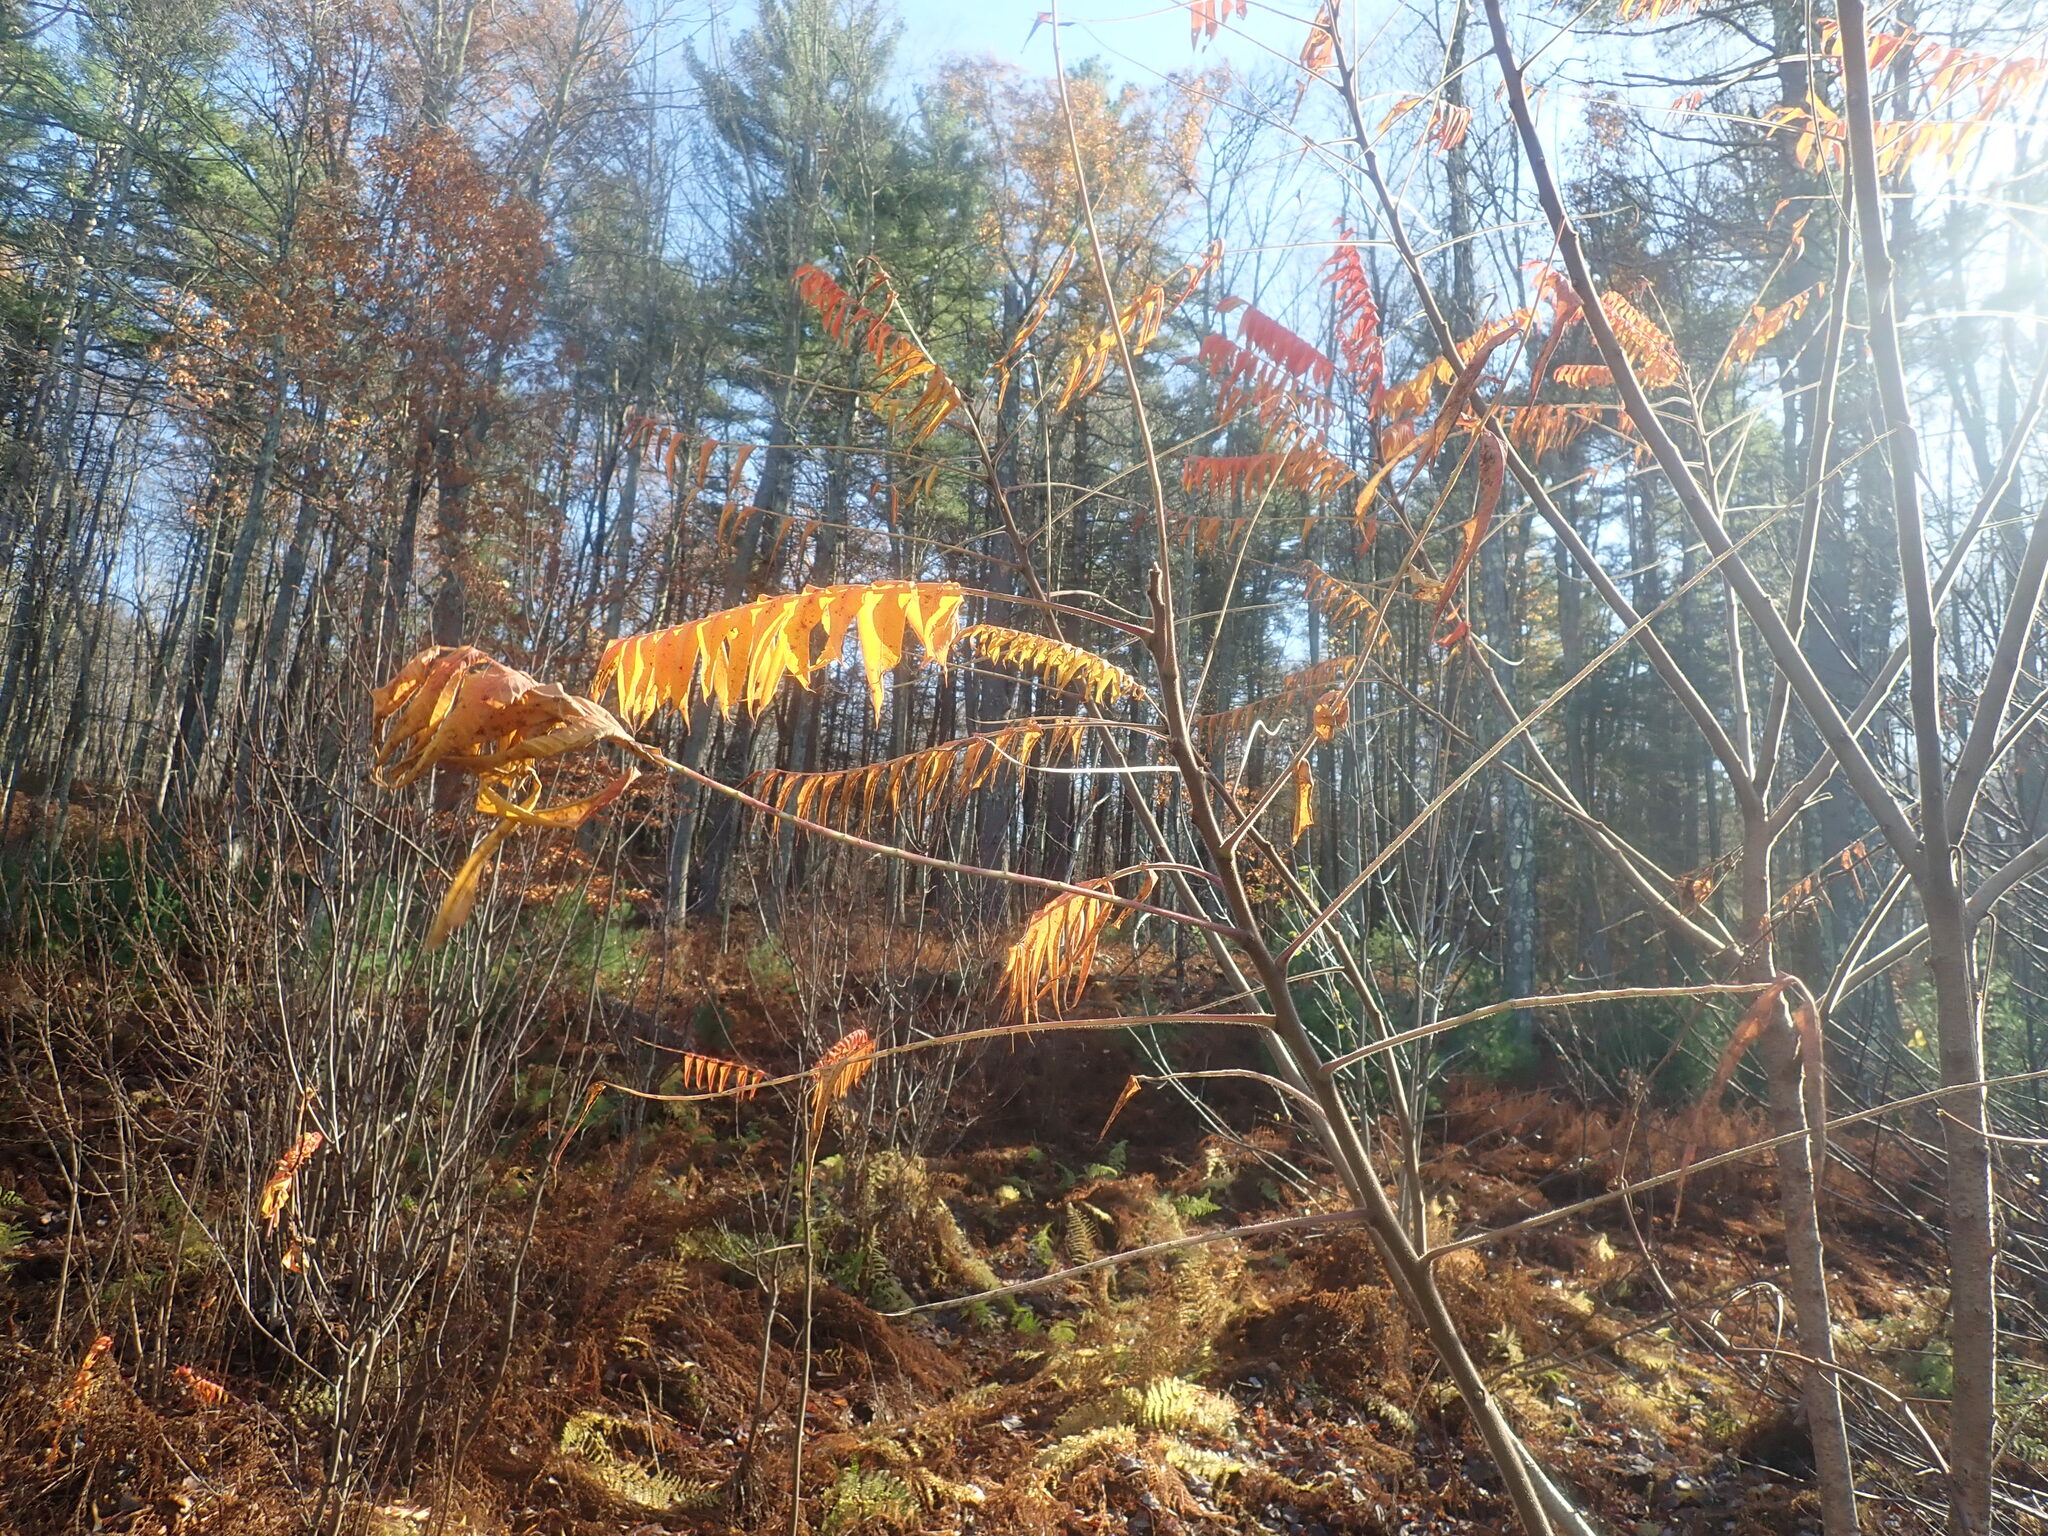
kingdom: Plantae
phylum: Tracheophyta
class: Magnoliopsida
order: Sapindales
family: Anacardiaceae
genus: Rhus
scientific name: Rhus typhina
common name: Staghorn sumac
